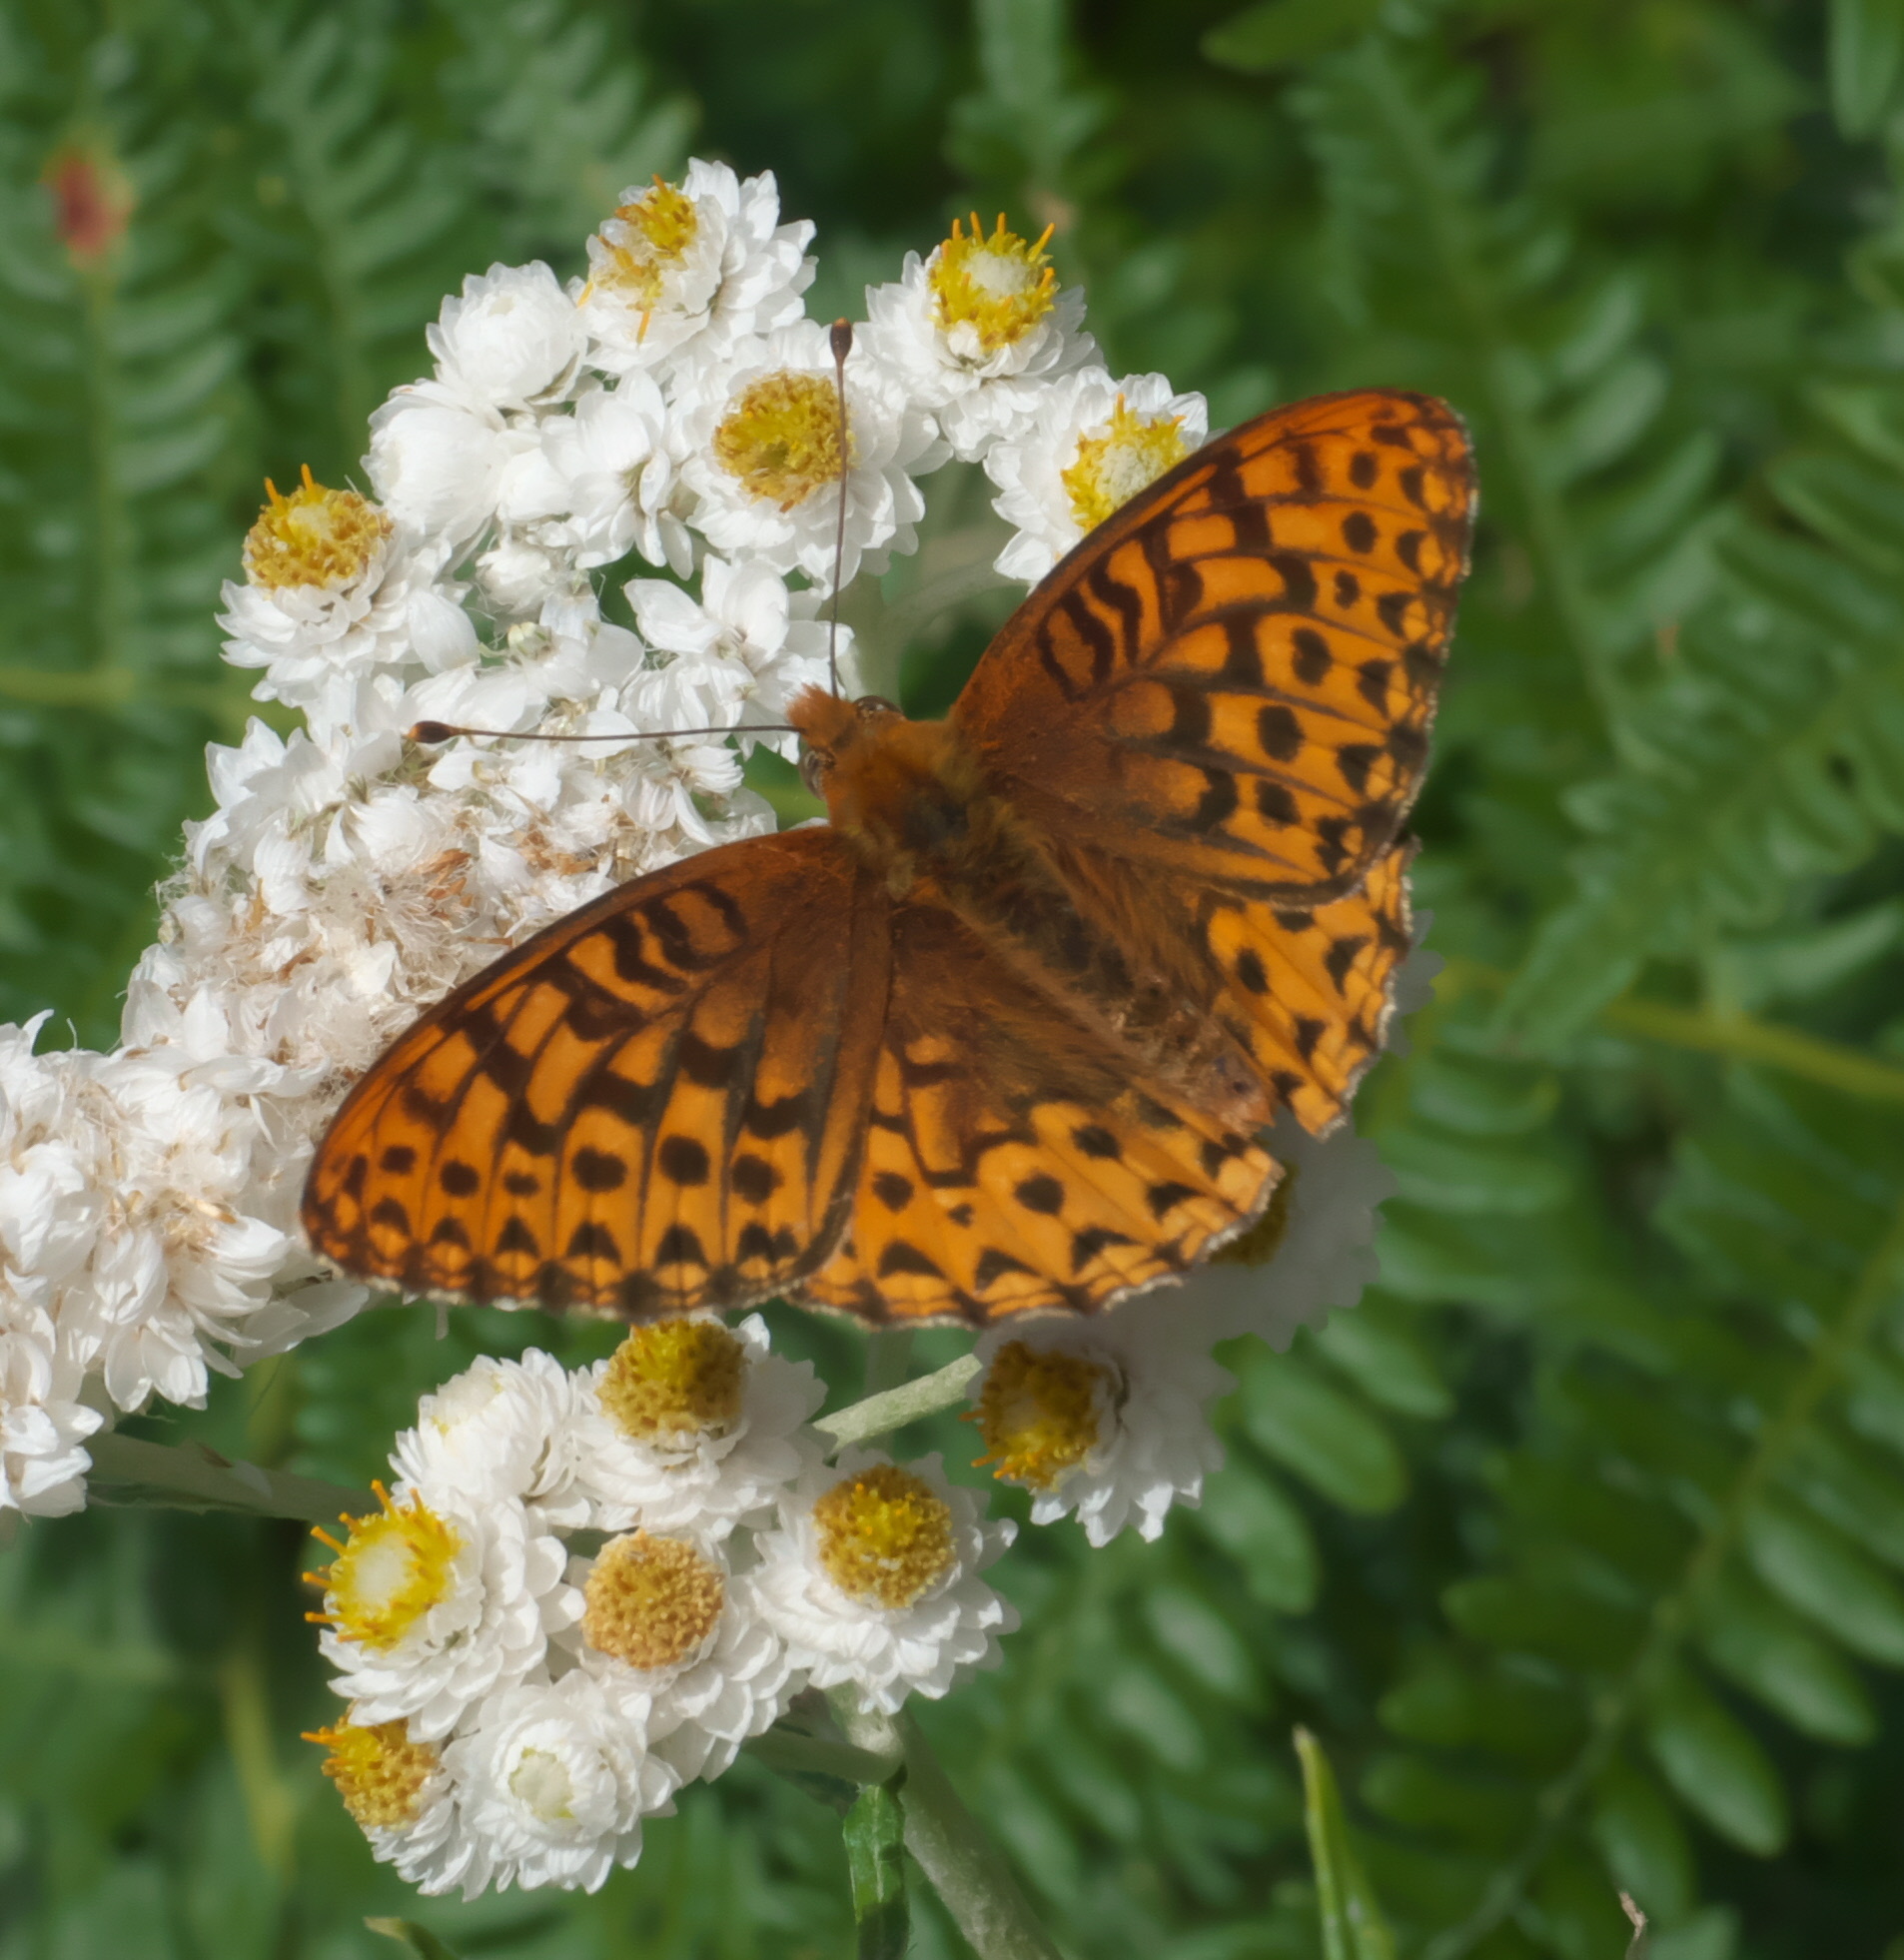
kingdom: Animalia
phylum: Arthropoda
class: Insecta
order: Lepidoptera
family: Nymphalidae
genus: Speyeria
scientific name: Speyeria hydaspe
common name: Hydaspe fritillary
